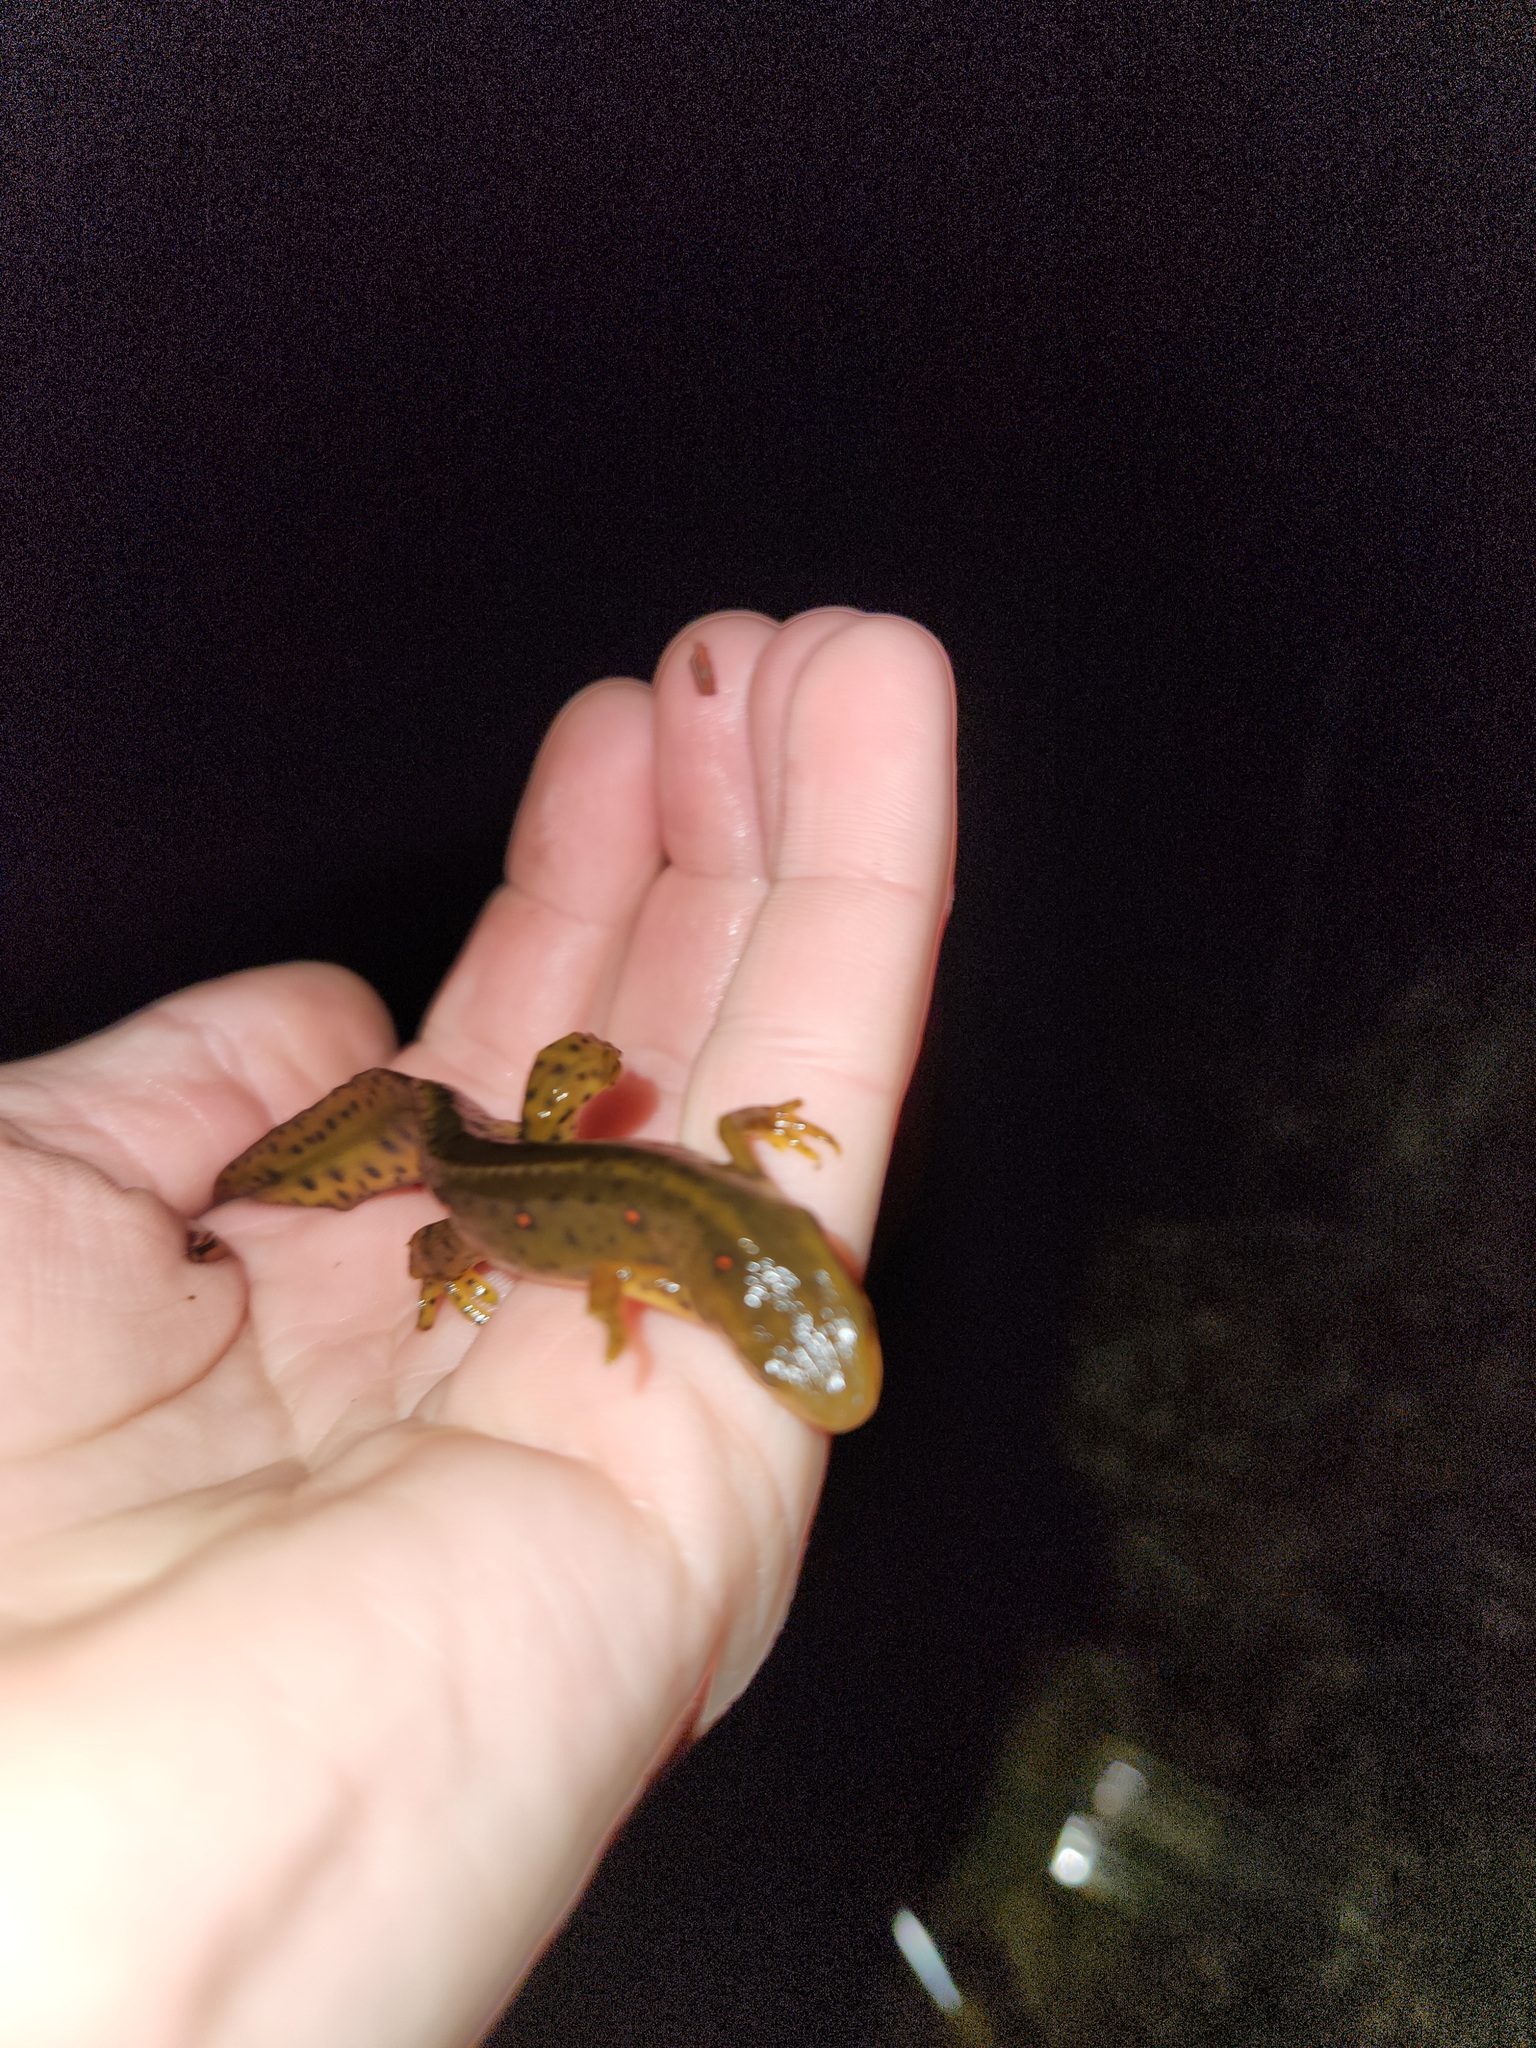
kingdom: Animalia
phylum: Chordata
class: Amphibia
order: Caudata
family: Salamandridae
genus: Notophthalmus
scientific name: Notophthalmus viridescens
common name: Eastern newt
